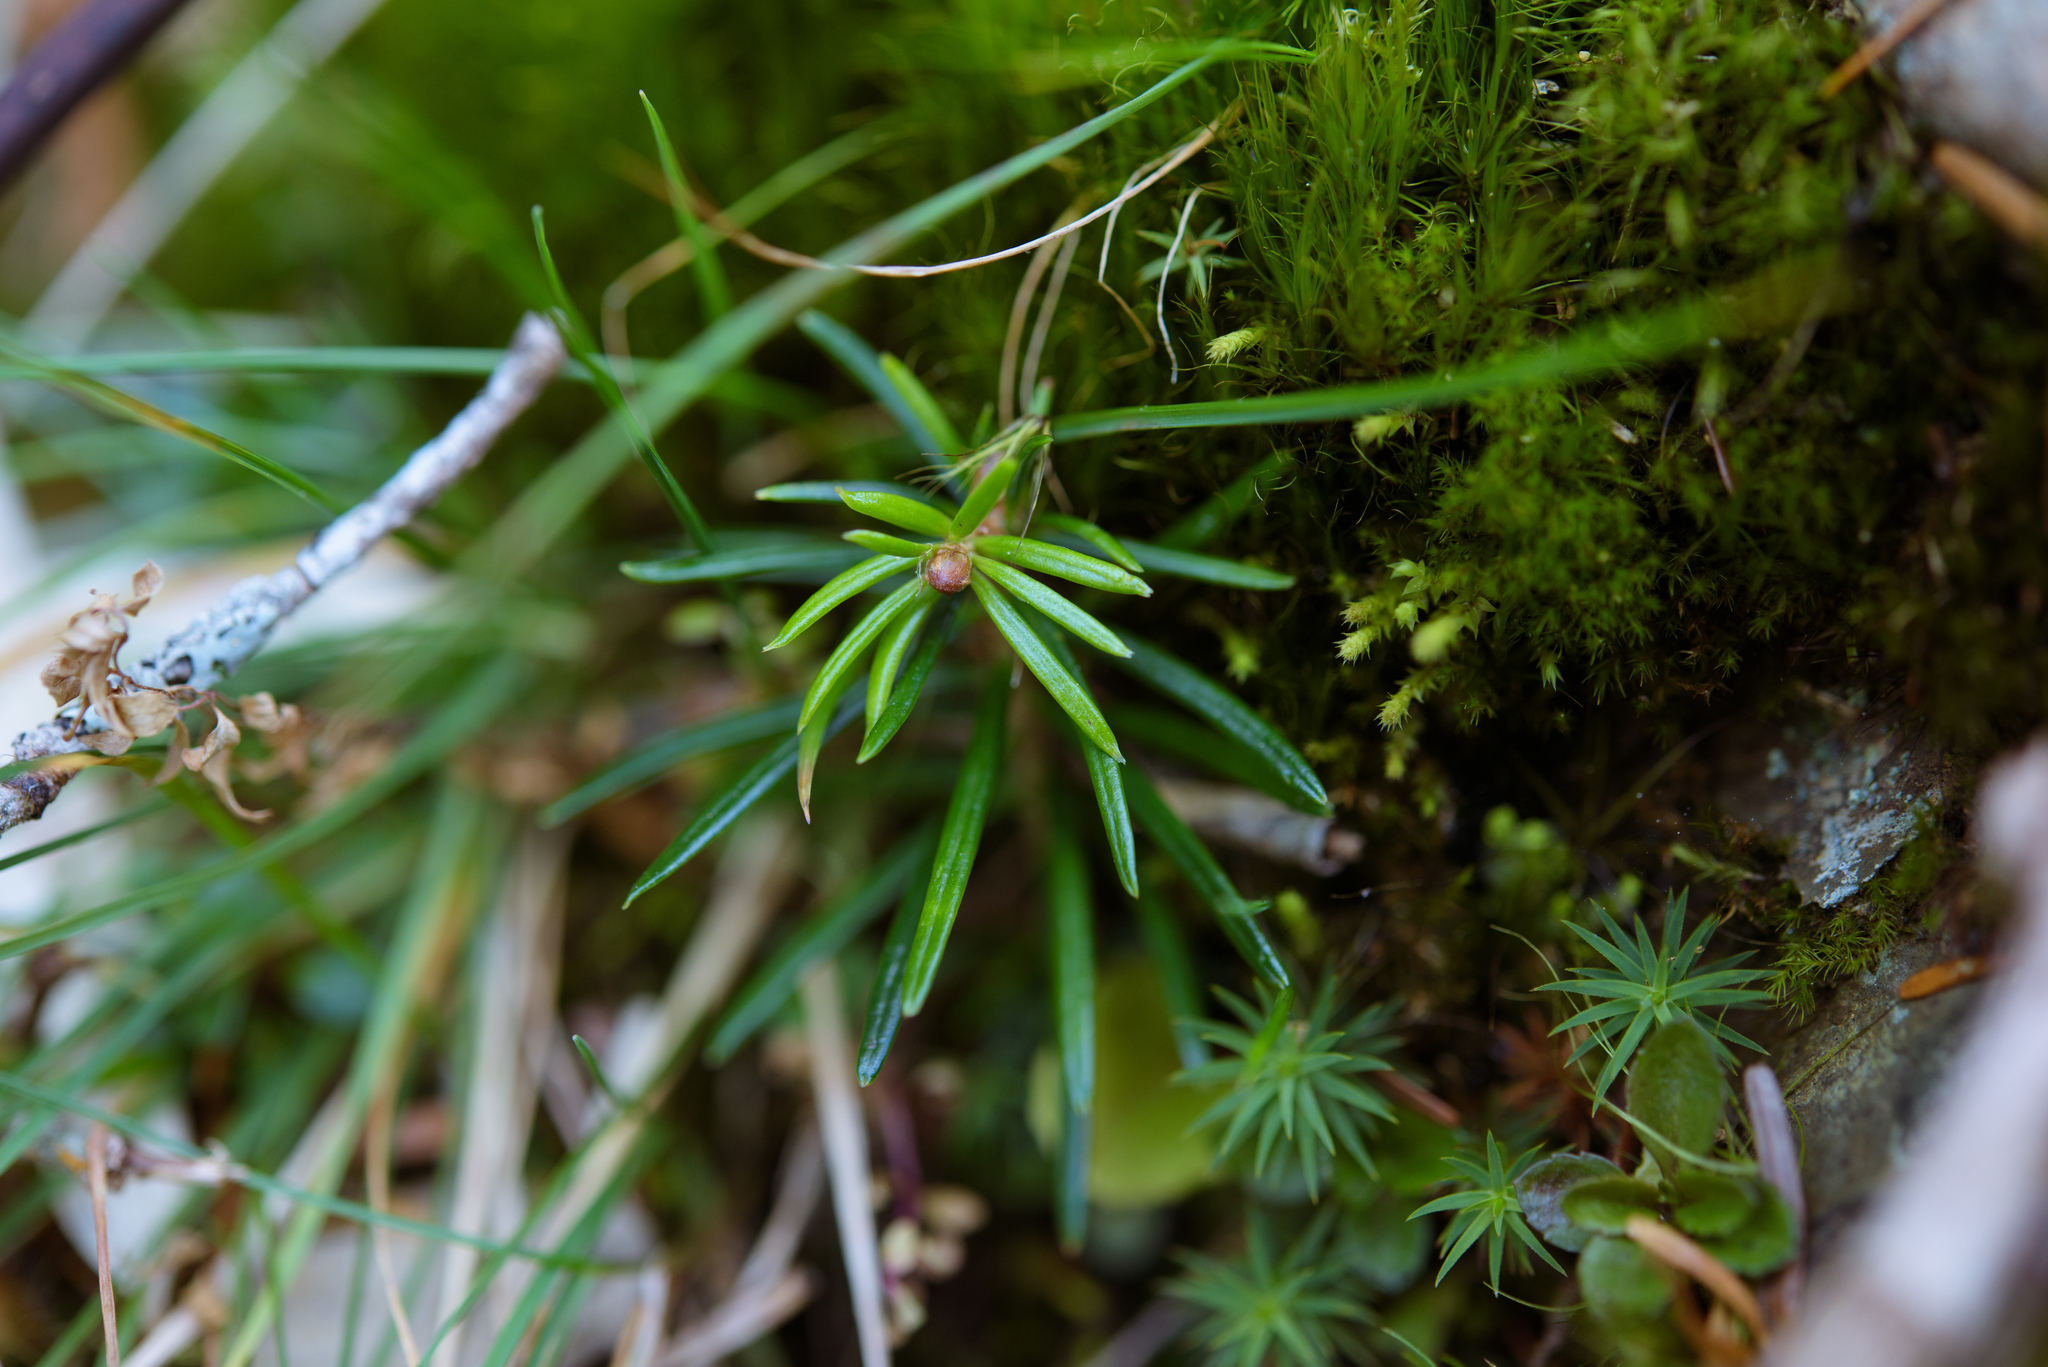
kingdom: Plantae
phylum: Tracheophyta
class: Pinopsida
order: Pinales
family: Pinaceae
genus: Abies
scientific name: Abies kawakamii
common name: Taiwan fir
